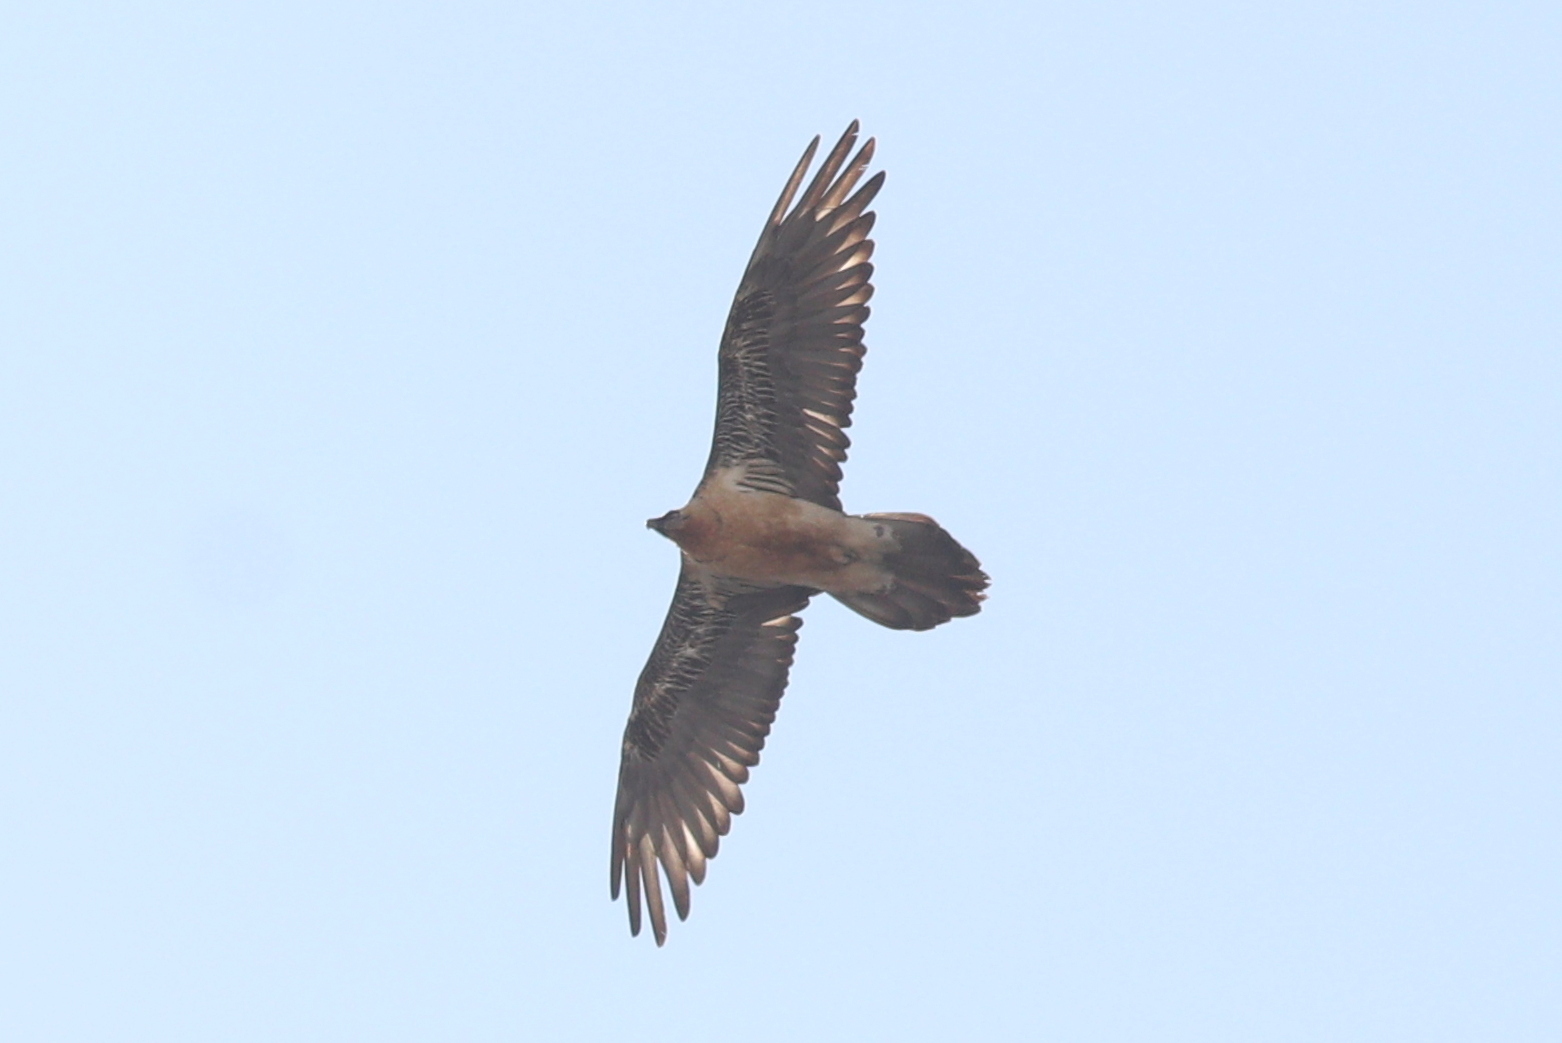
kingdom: Animalia
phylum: Chordata
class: Aves
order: Accipitriformes
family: Accipitridae
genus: Gypaetus
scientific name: Gypaetus barbatus
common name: Bearded vulture
